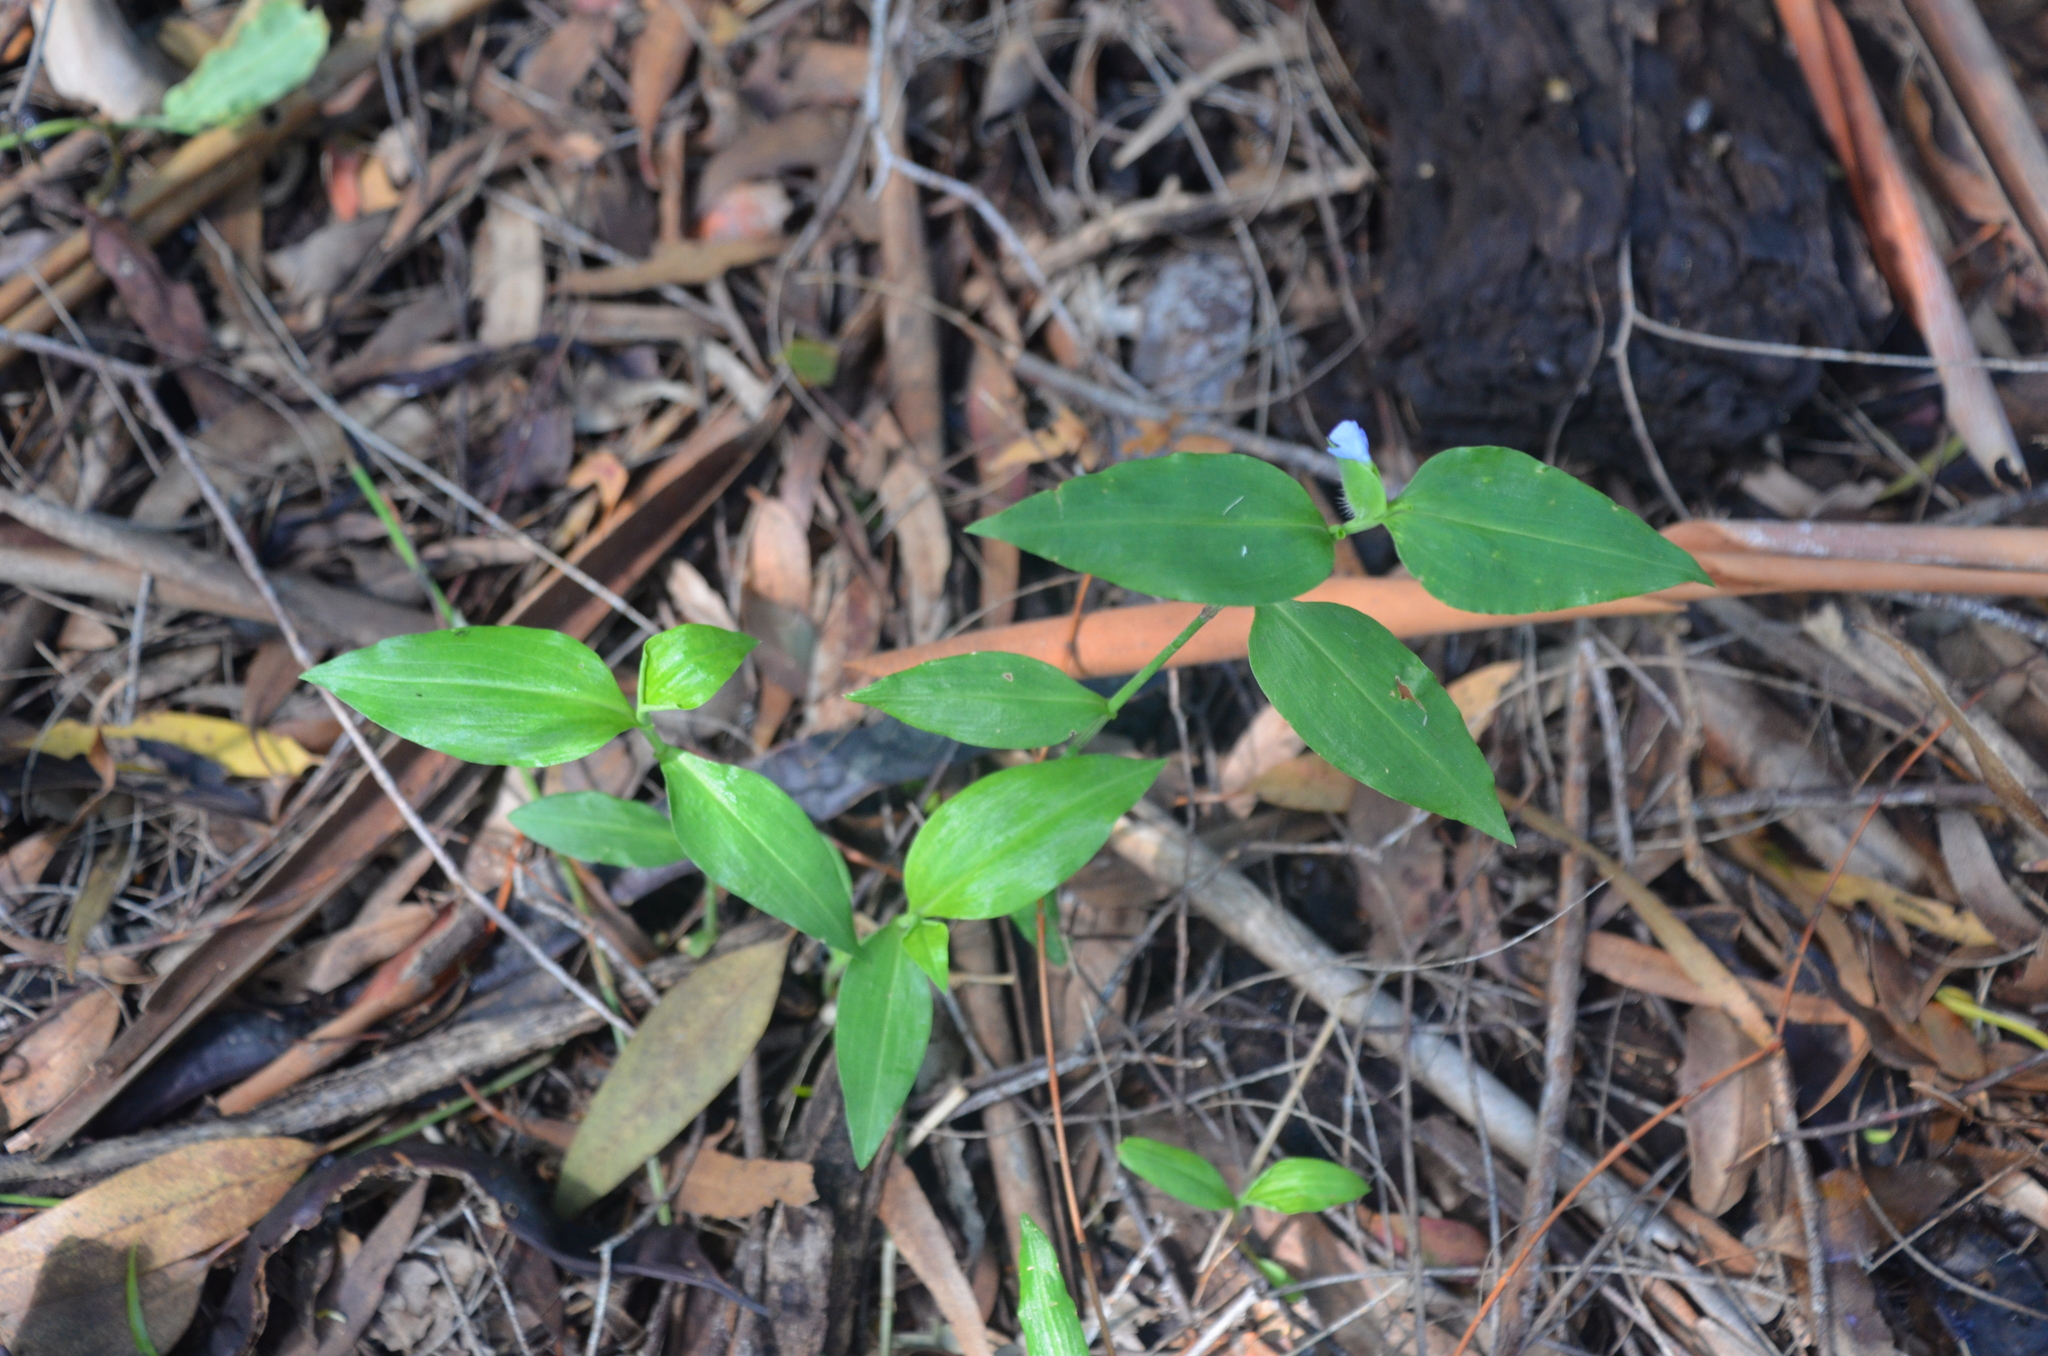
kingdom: Plantae
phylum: Tracheophyta
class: Liliopsida
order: Commelinales
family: Commelinaceae
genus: Commelina
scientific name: Commelina erecta
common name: Blousel blommetjie
